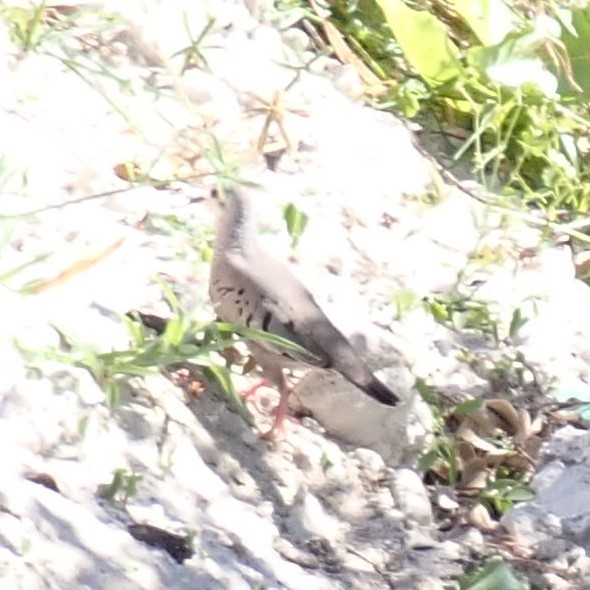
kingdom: Animalia
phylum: Chordata
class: Aves
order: Columbiformes
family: Columbidae
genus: Columbina
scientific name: Columbina passerina
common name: Common ground-dove
